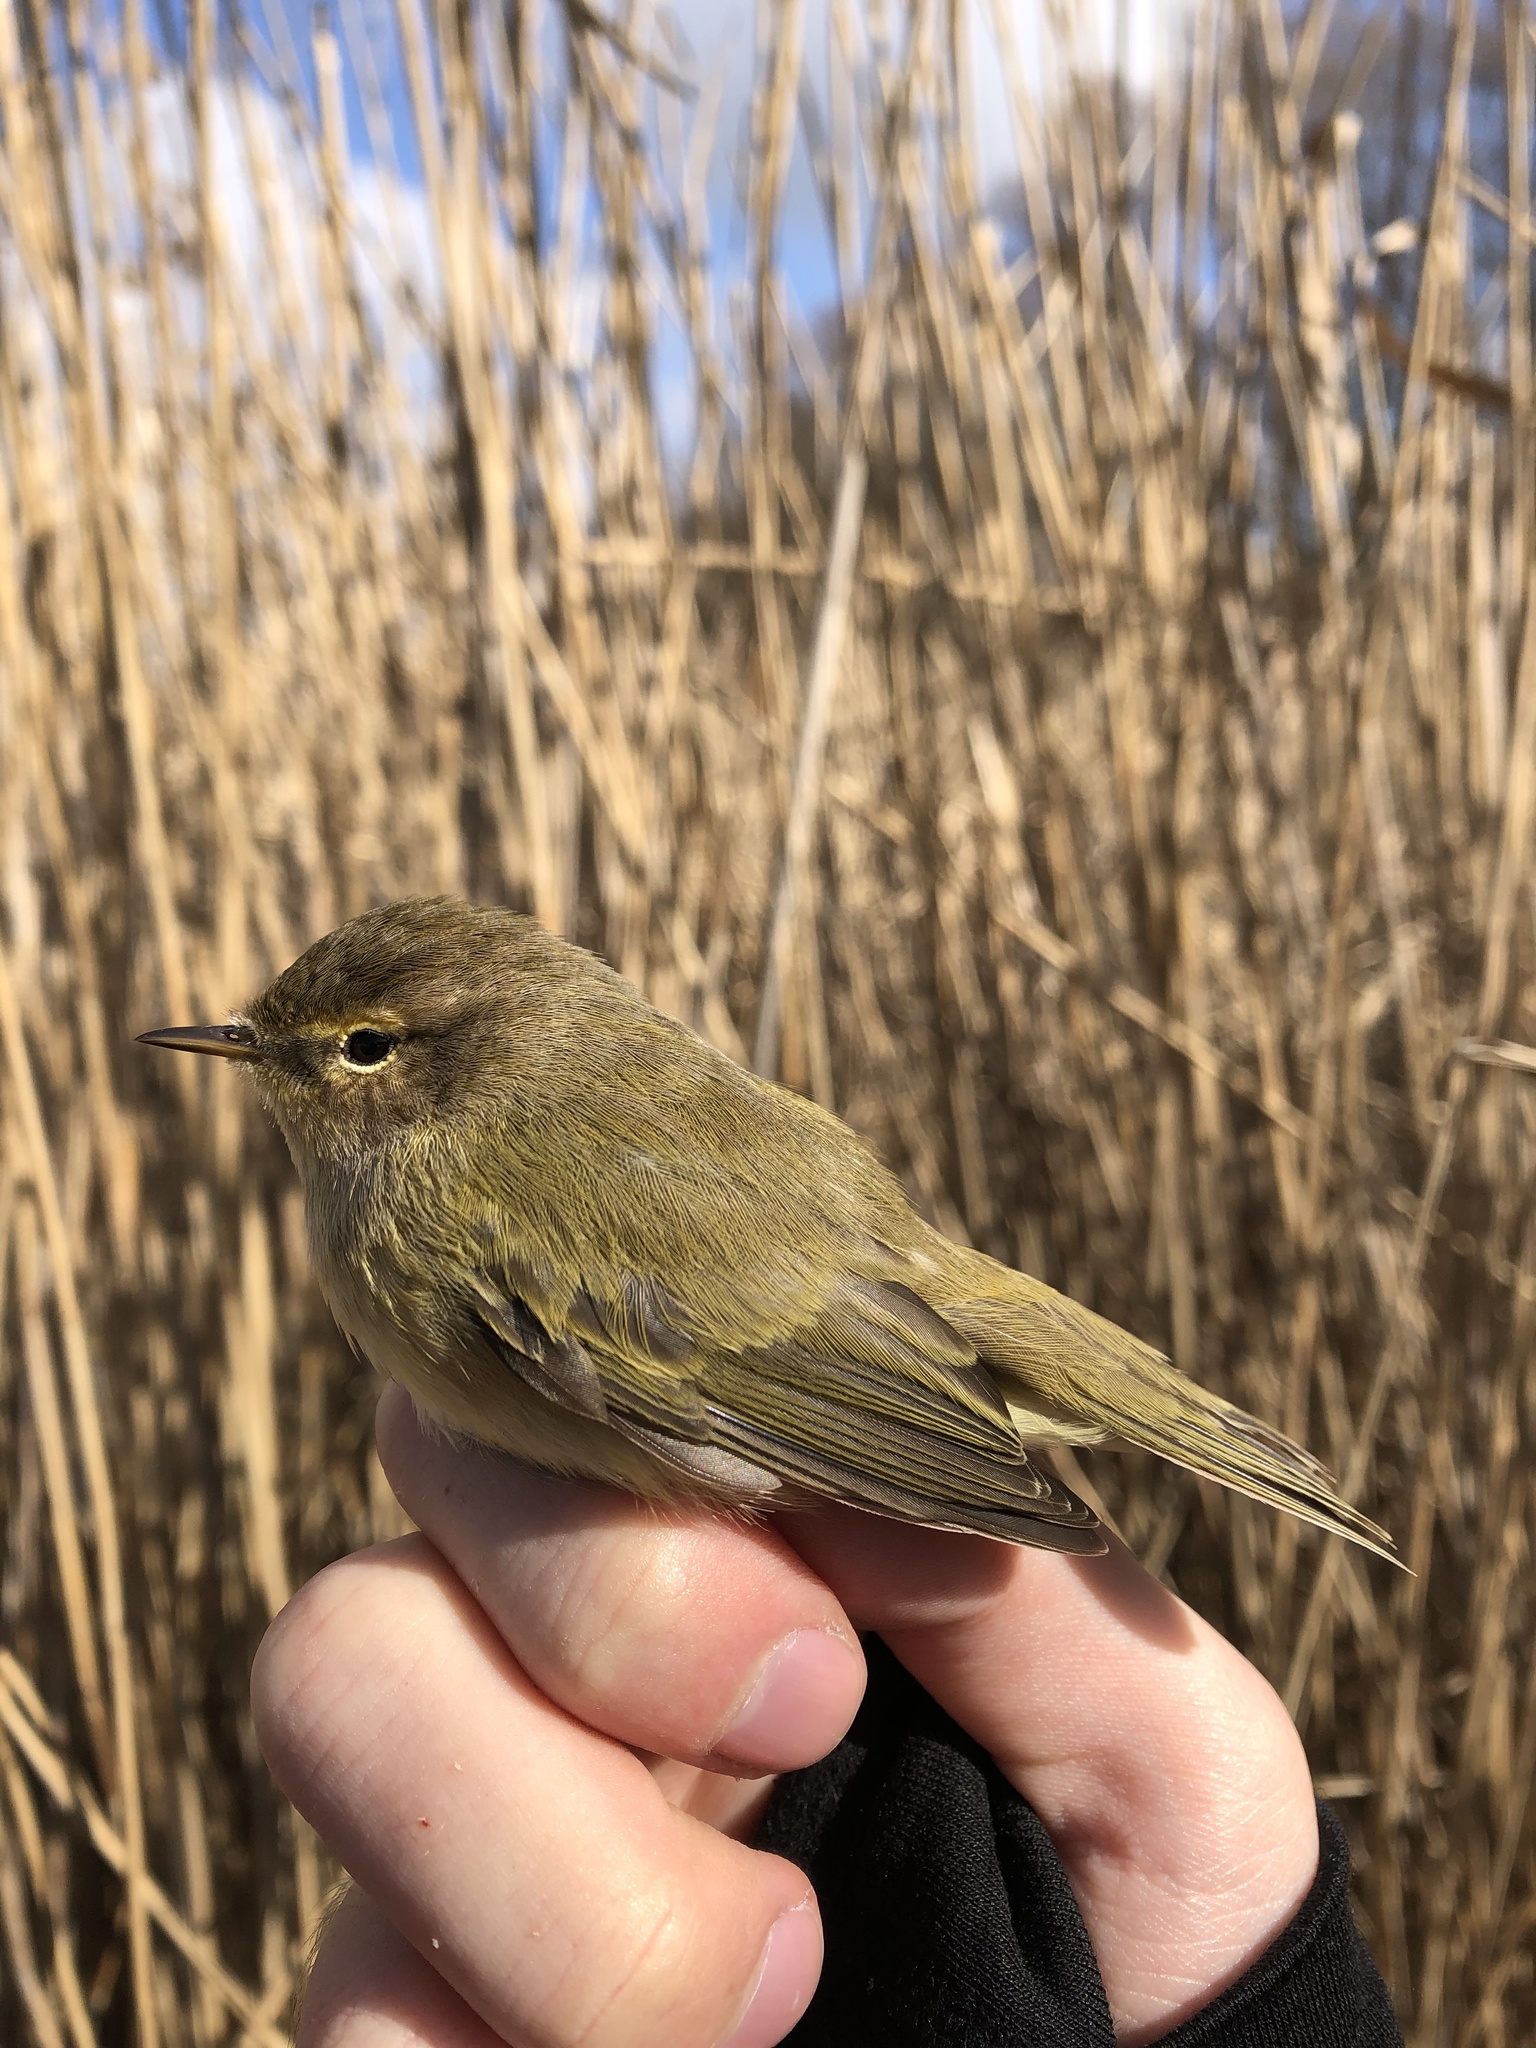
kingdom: Animalia
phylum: Chordata
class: Aves
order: Passeriformes
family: Phylloscopidae
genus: Phylloscopus
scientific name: Phylloscopus collybita
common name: Common chiffchaff
